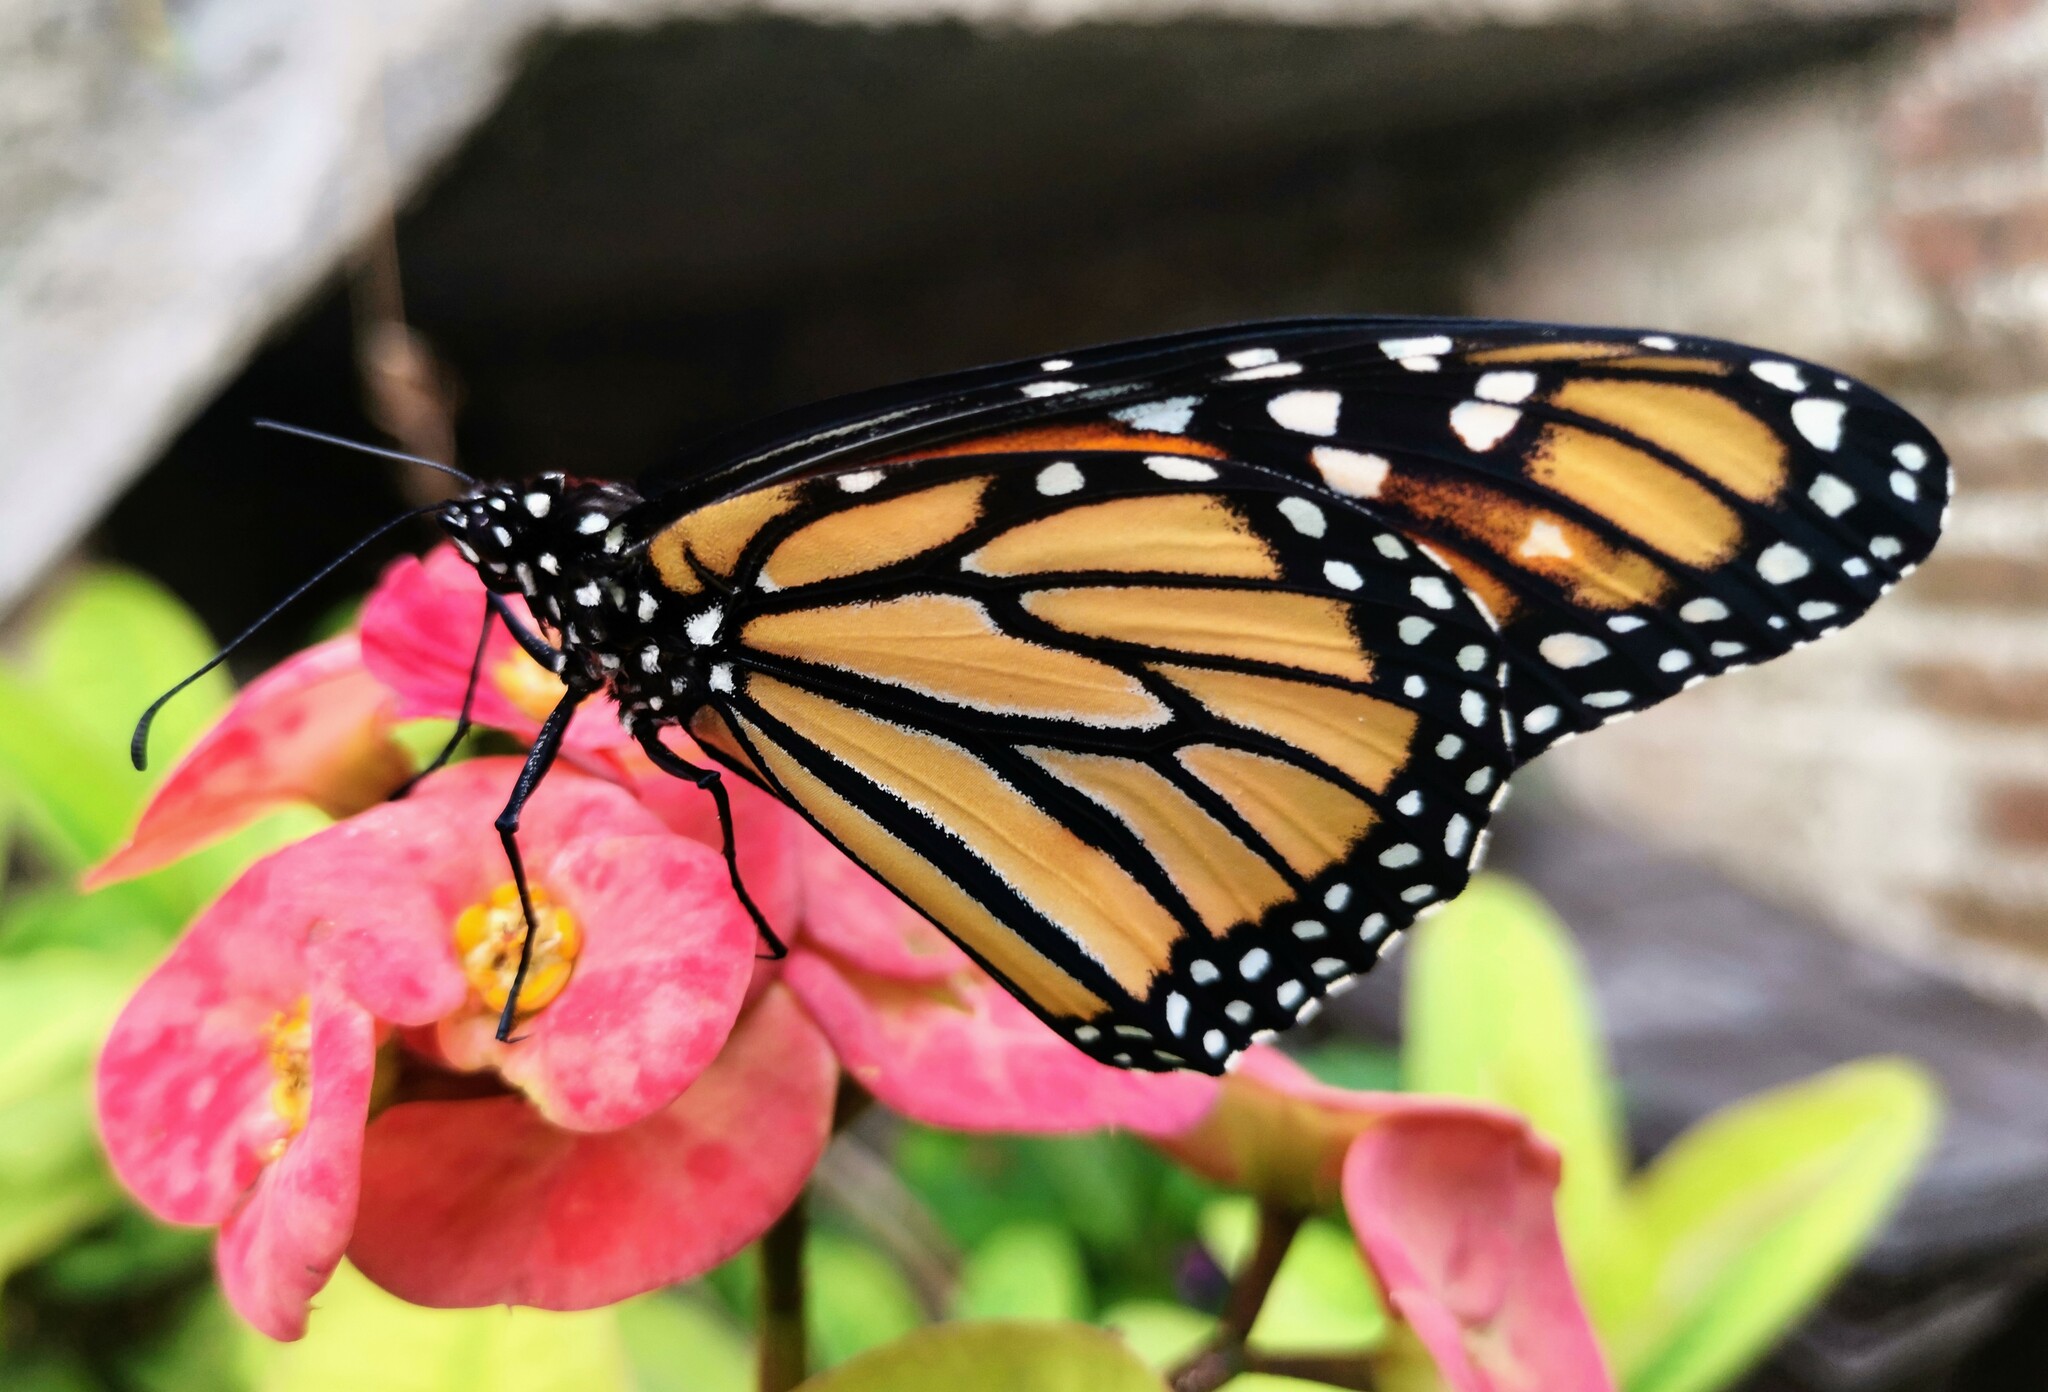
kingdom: Animalia
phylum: Arthropoda
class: Insecta
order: Lepidoptera
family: Nymphalidae
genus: Danaus
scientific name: Danaus plexippus
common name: Monarch
